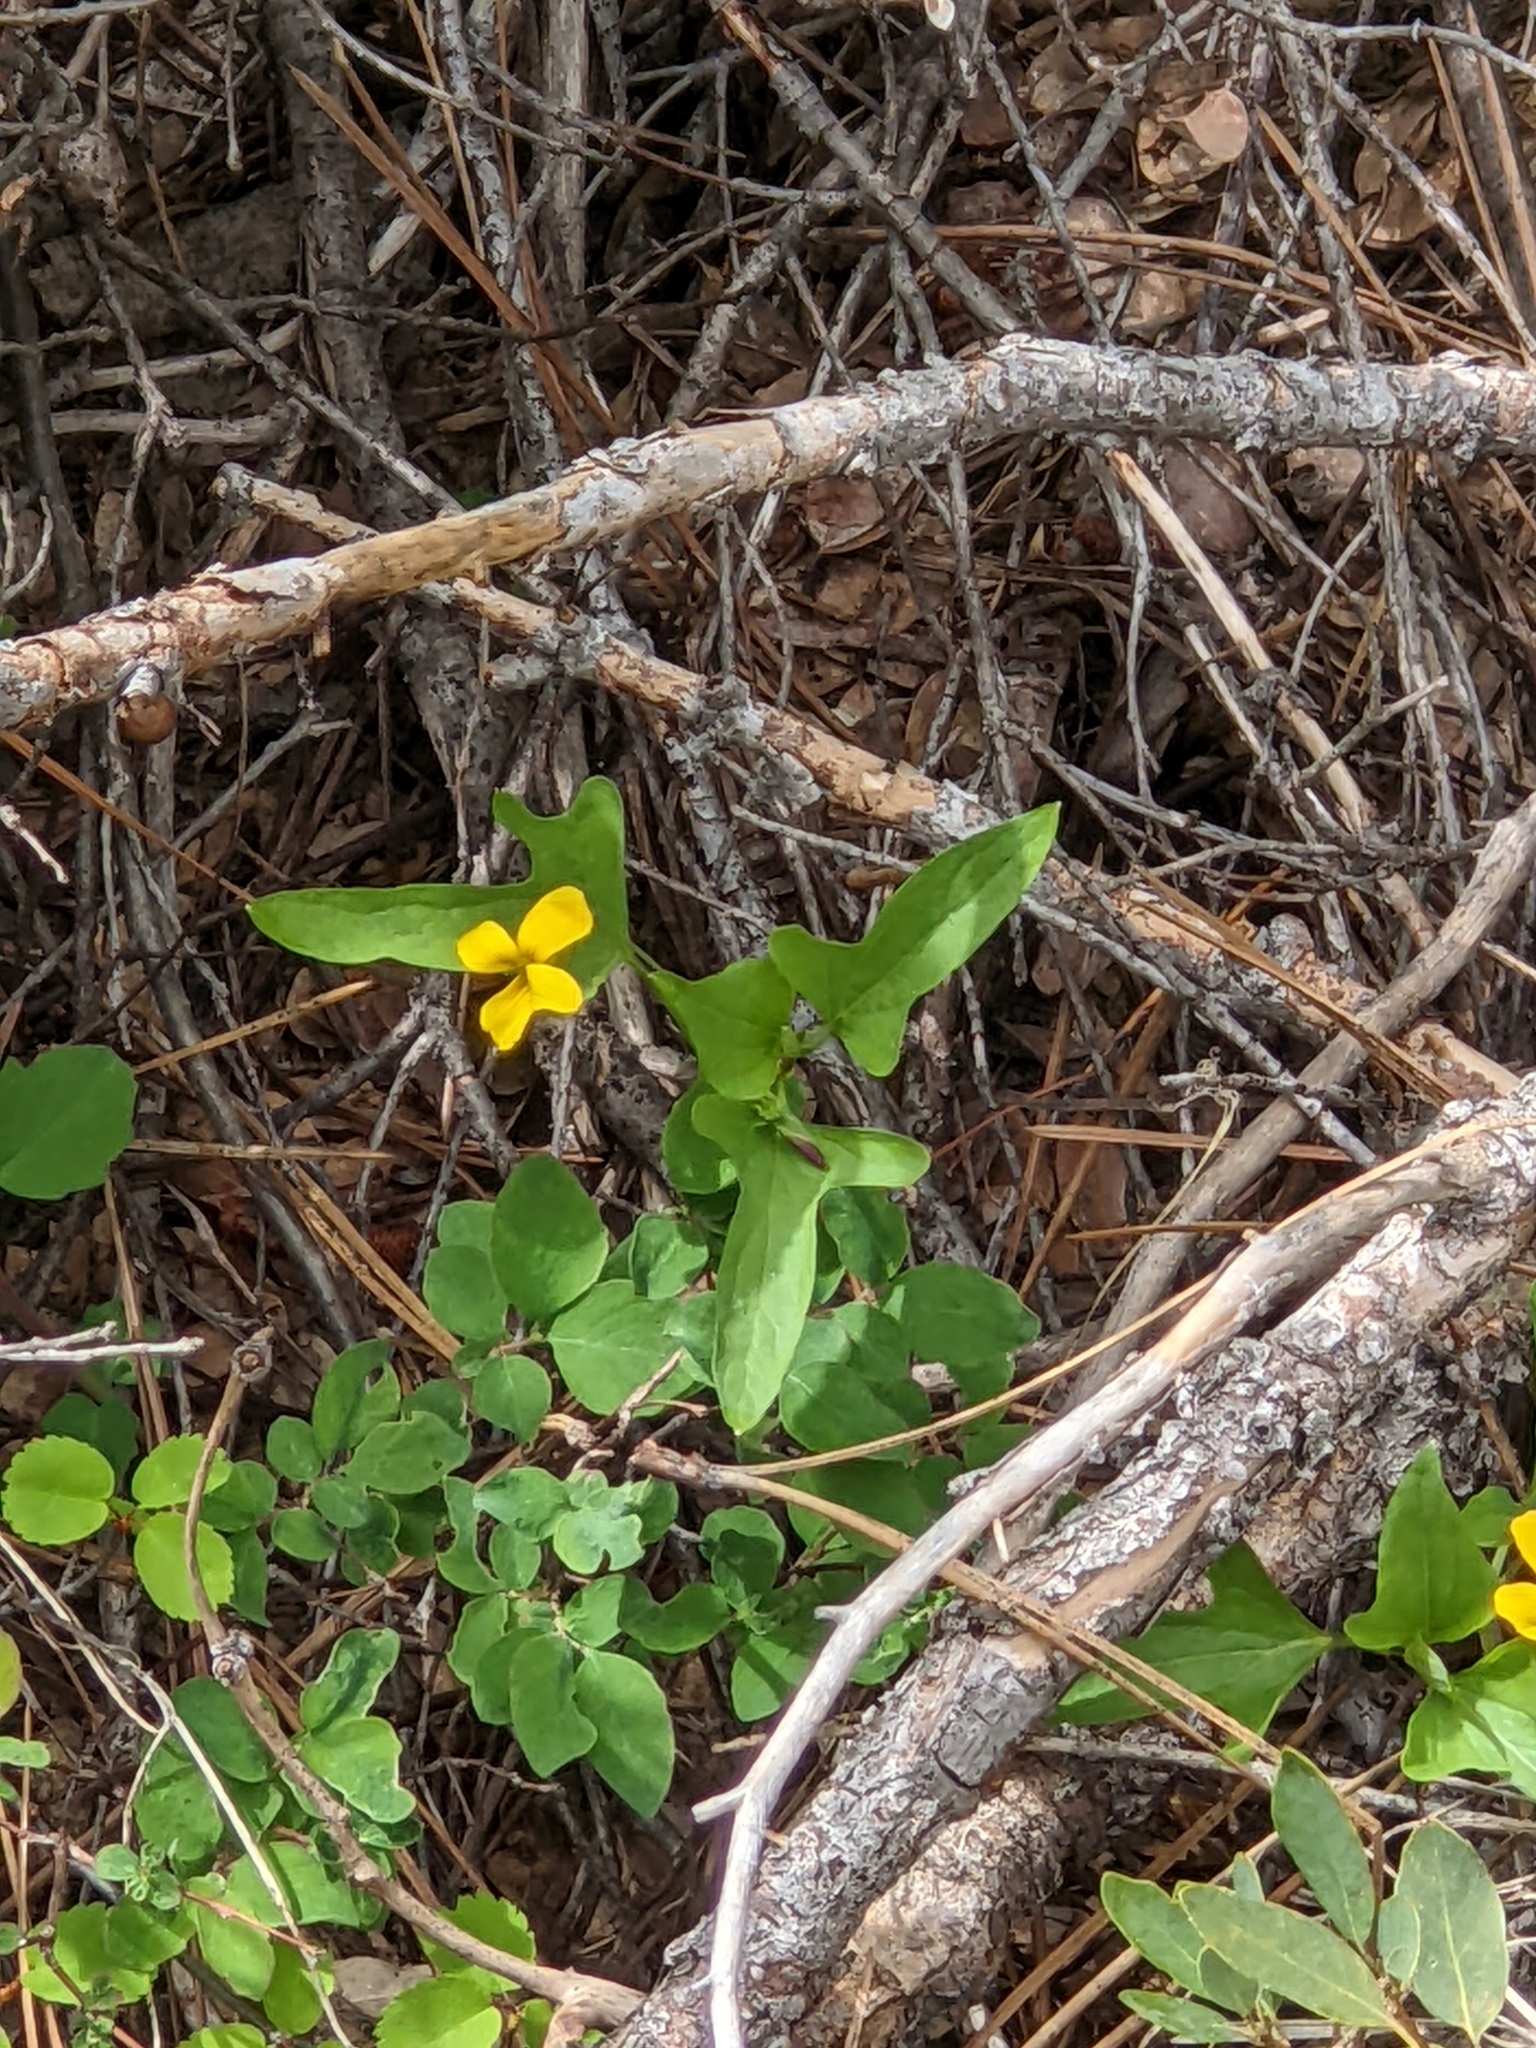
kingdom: Plantae
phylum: Tracheophyta
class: Magnoliopsida
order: Malpighiales
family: Violaceae
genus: Viola
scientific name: Viola lobata
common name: Pine violet
